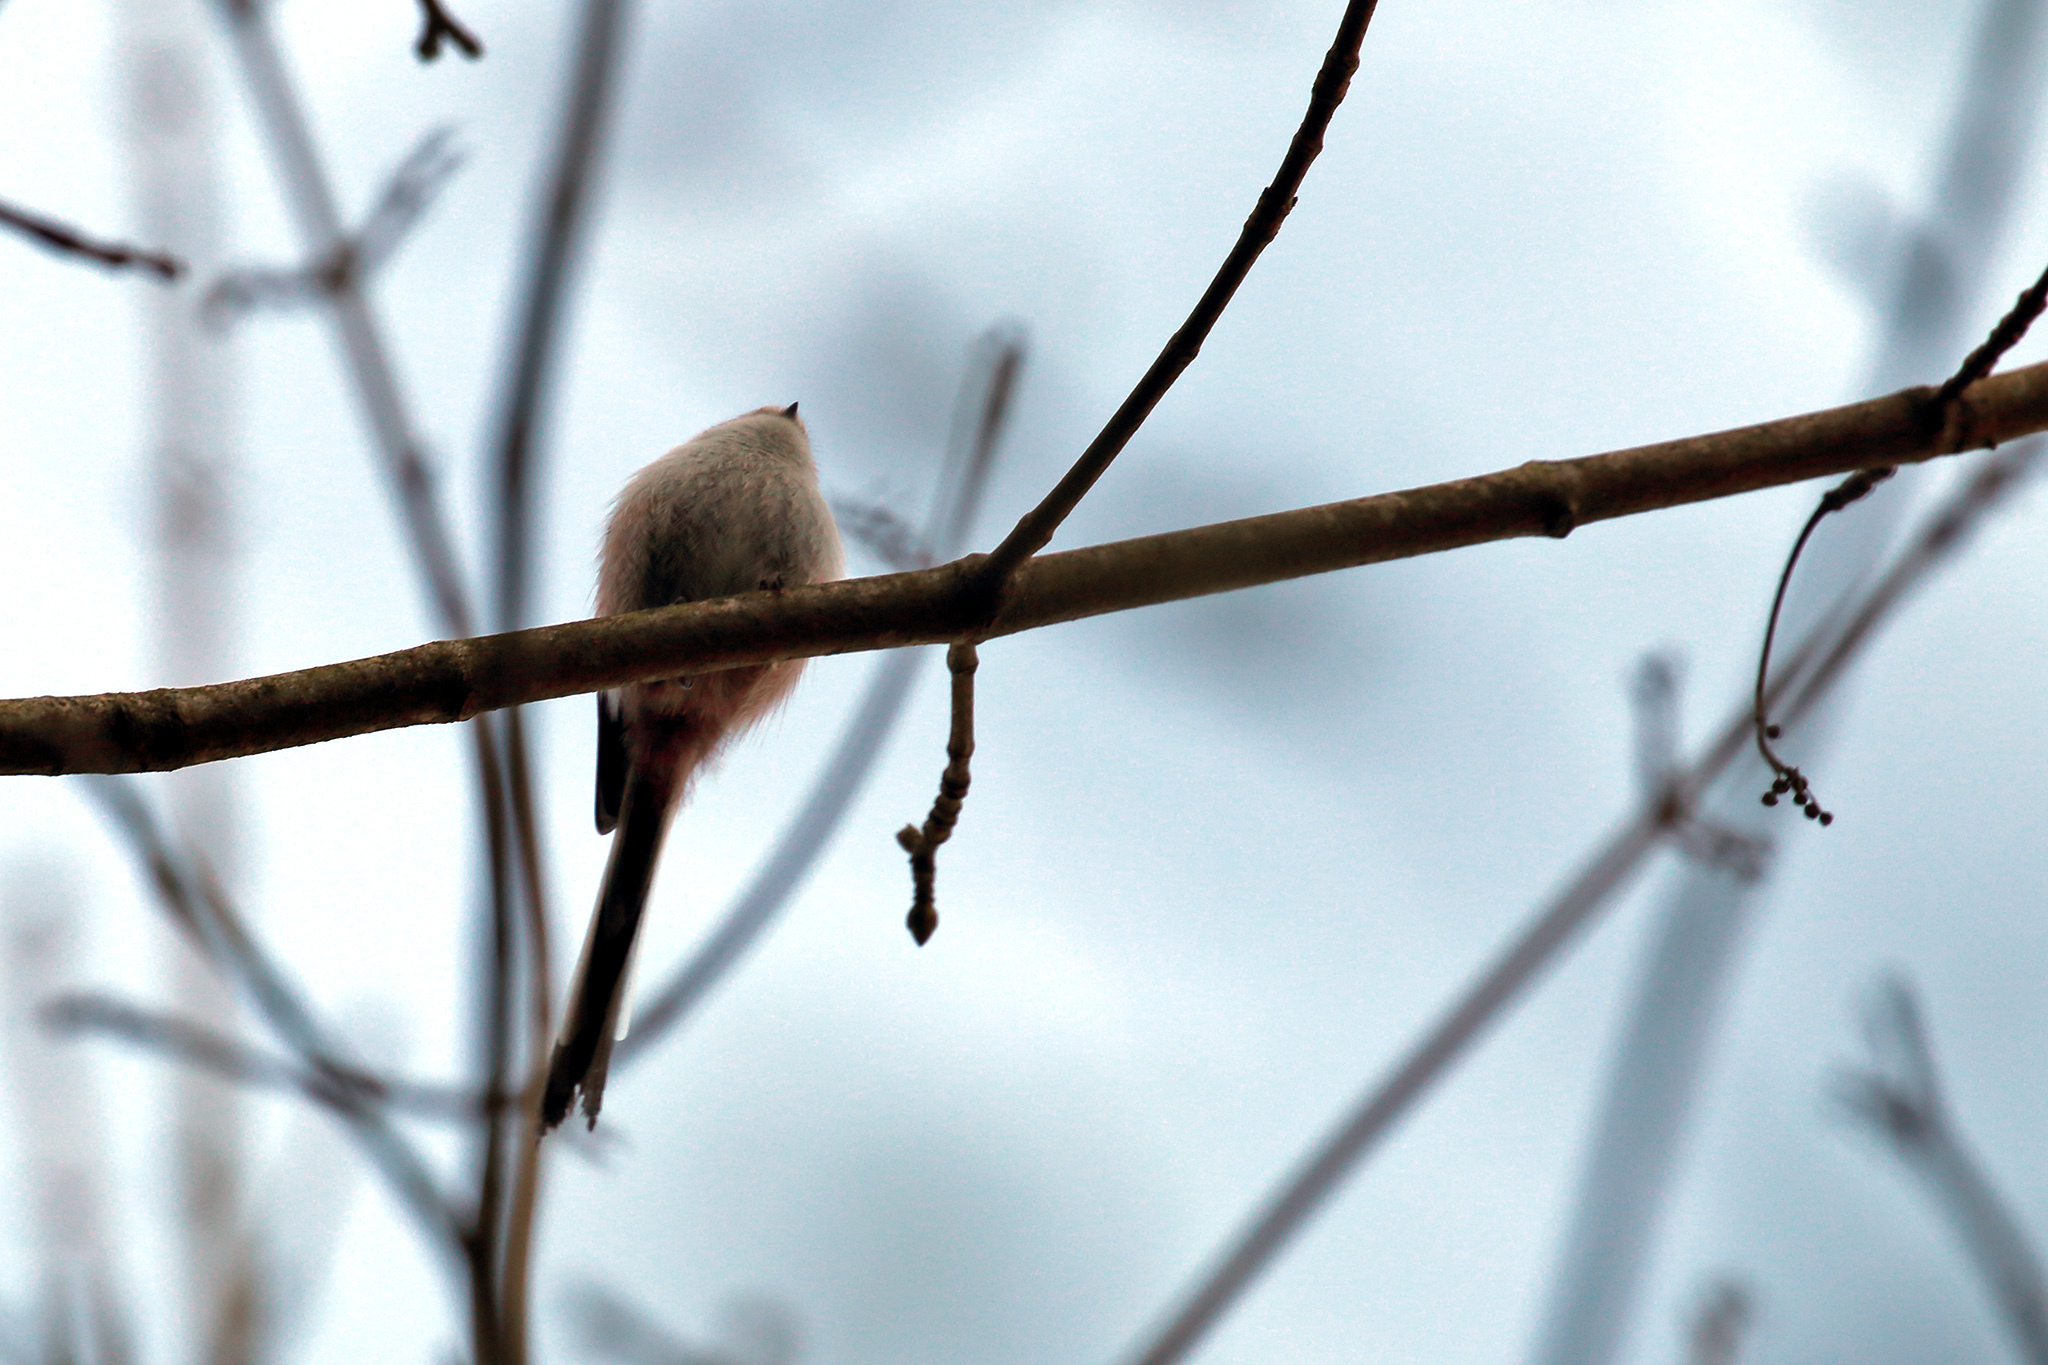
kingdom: Animalia
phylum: Chordata
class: Aves
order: Passeriformes
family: Aegithalidae
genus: Aegithalos
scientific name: Aegithalos caudatus
